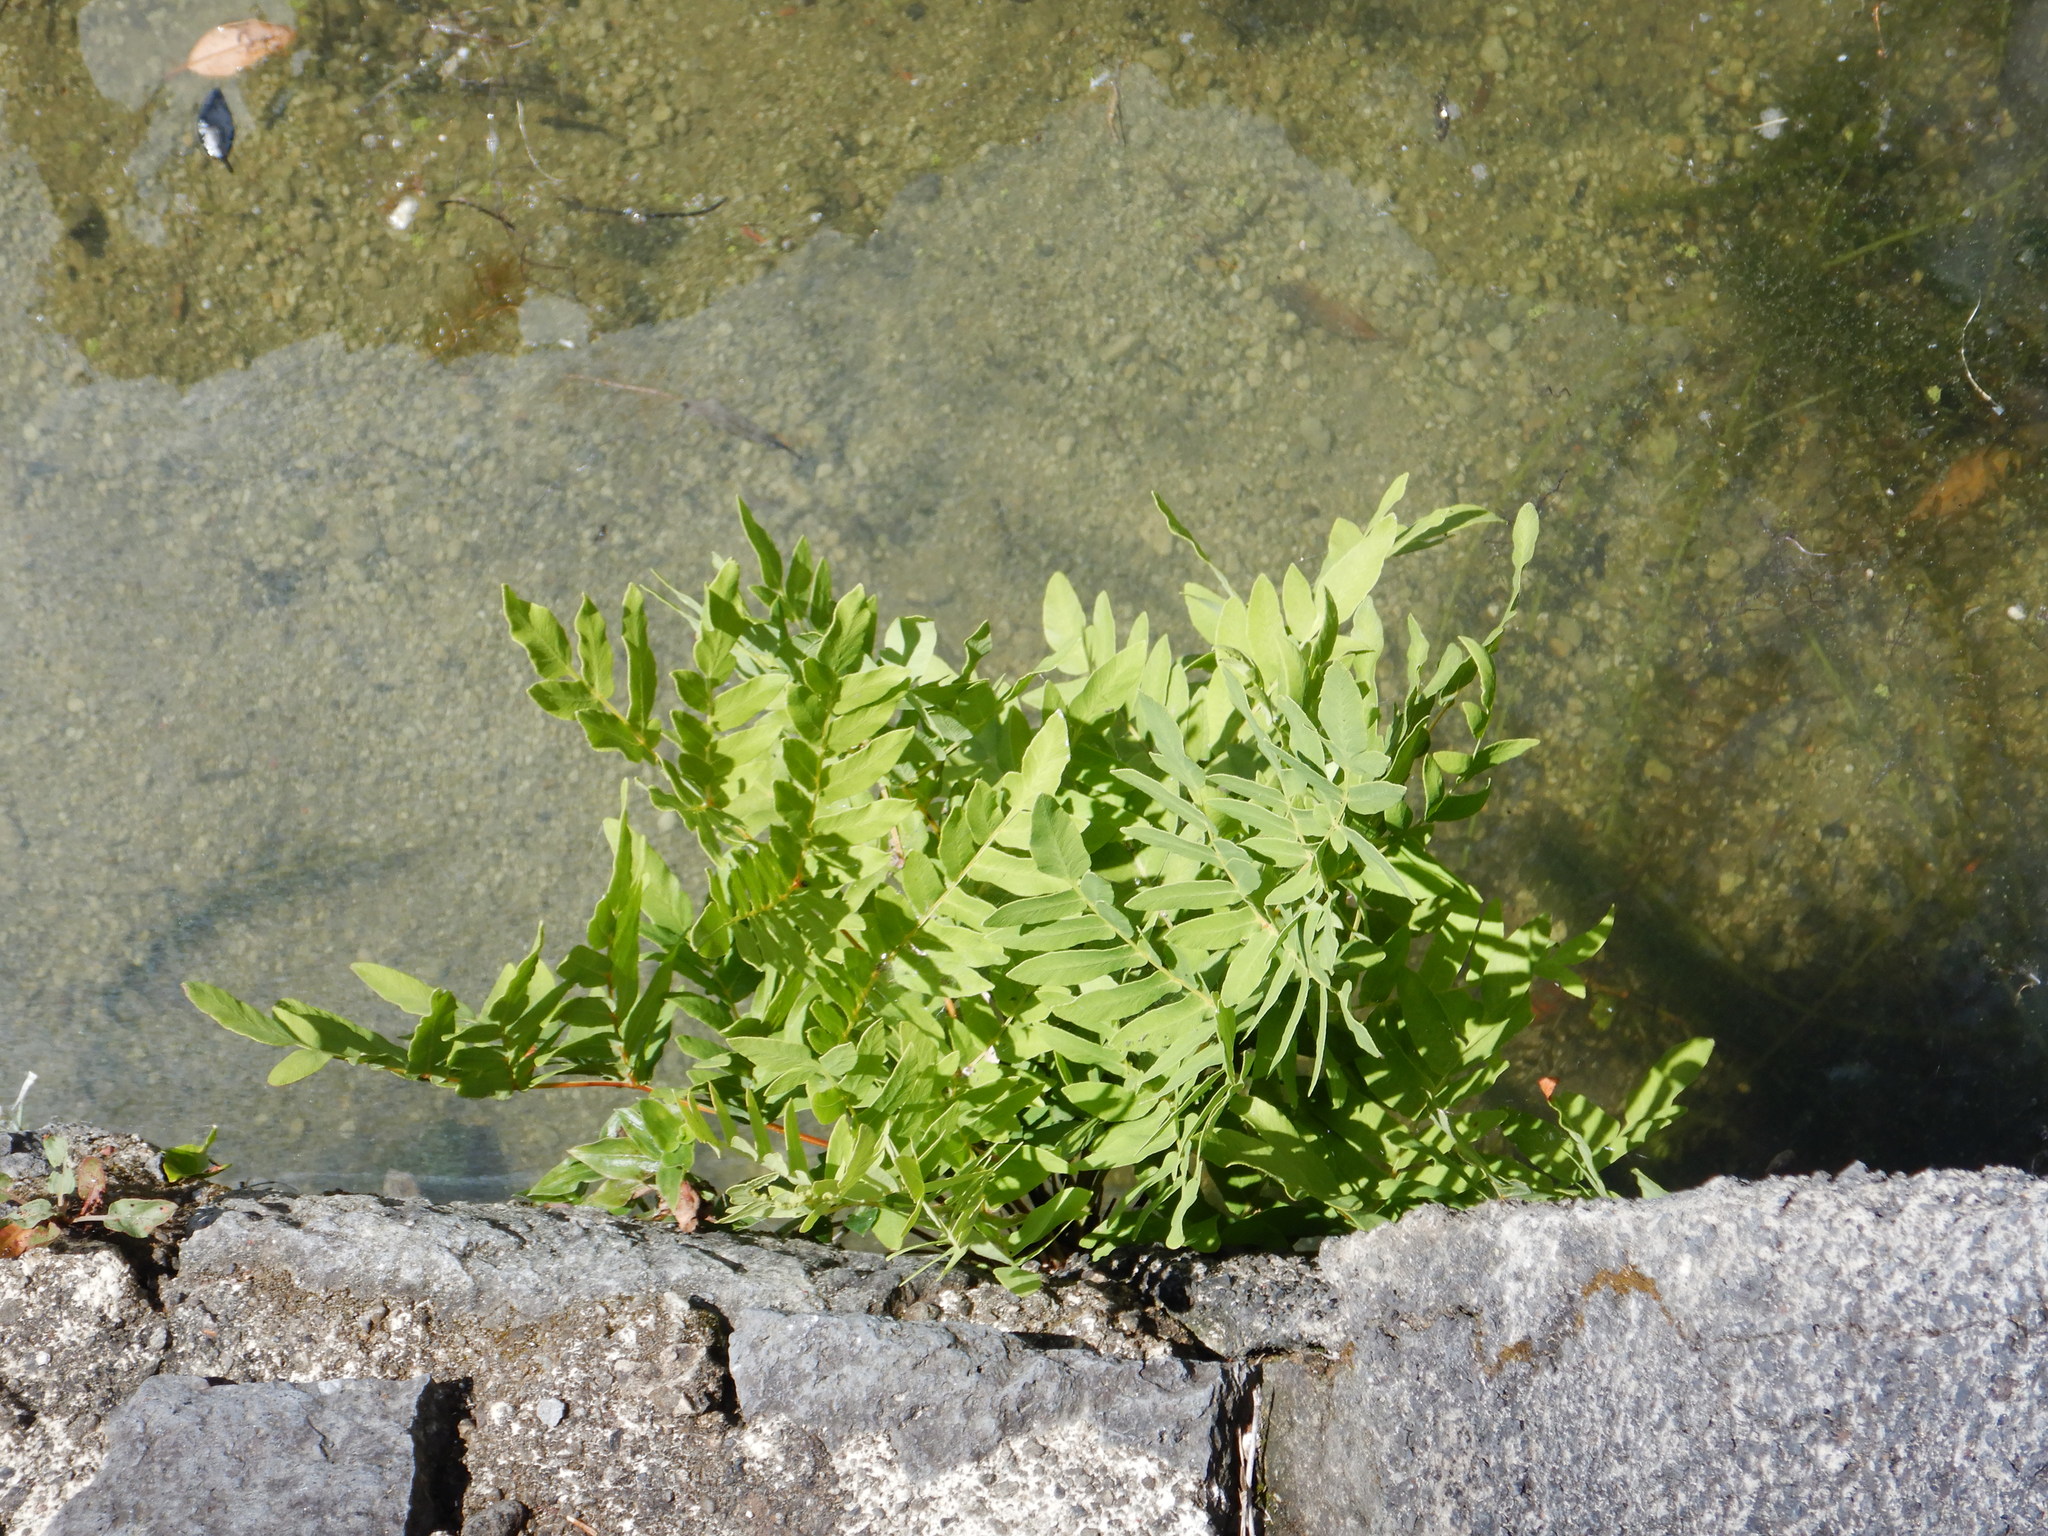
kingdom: Plantae
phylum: Tracheophyta
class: Polypodiopsida
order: Osmundales
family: Osmundaceae
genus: Osmunda
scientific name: Osmunda regalis
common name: Royal fern
